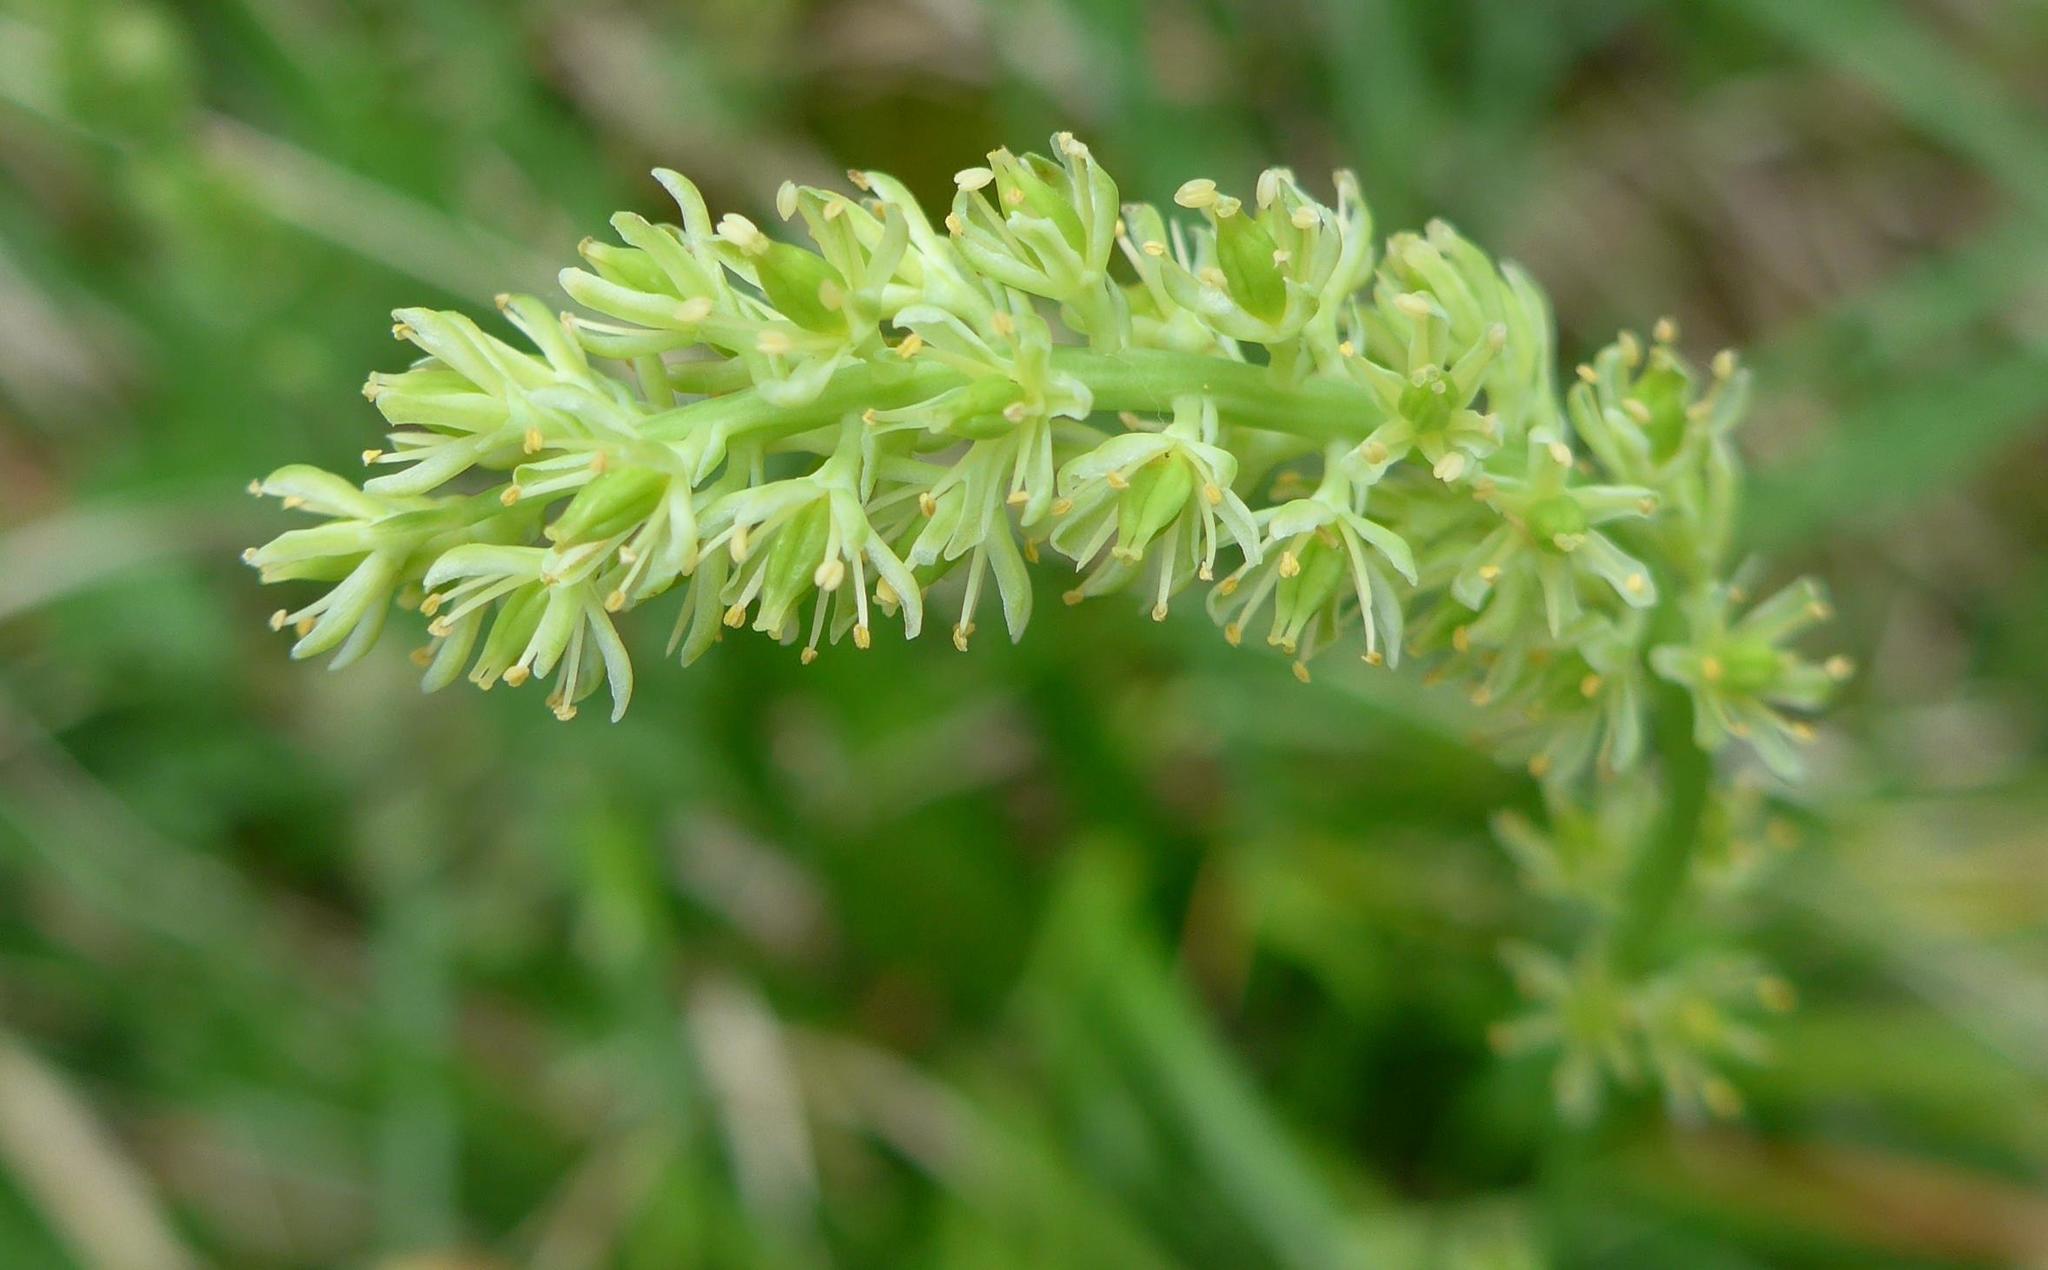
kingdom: Plantae
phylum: Tracheophyta
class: Liliopsida
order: Alismatales
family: Tofieldiaceae
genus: Tofieldia
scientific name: Tofieldia calyculata
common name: German-asphodel
